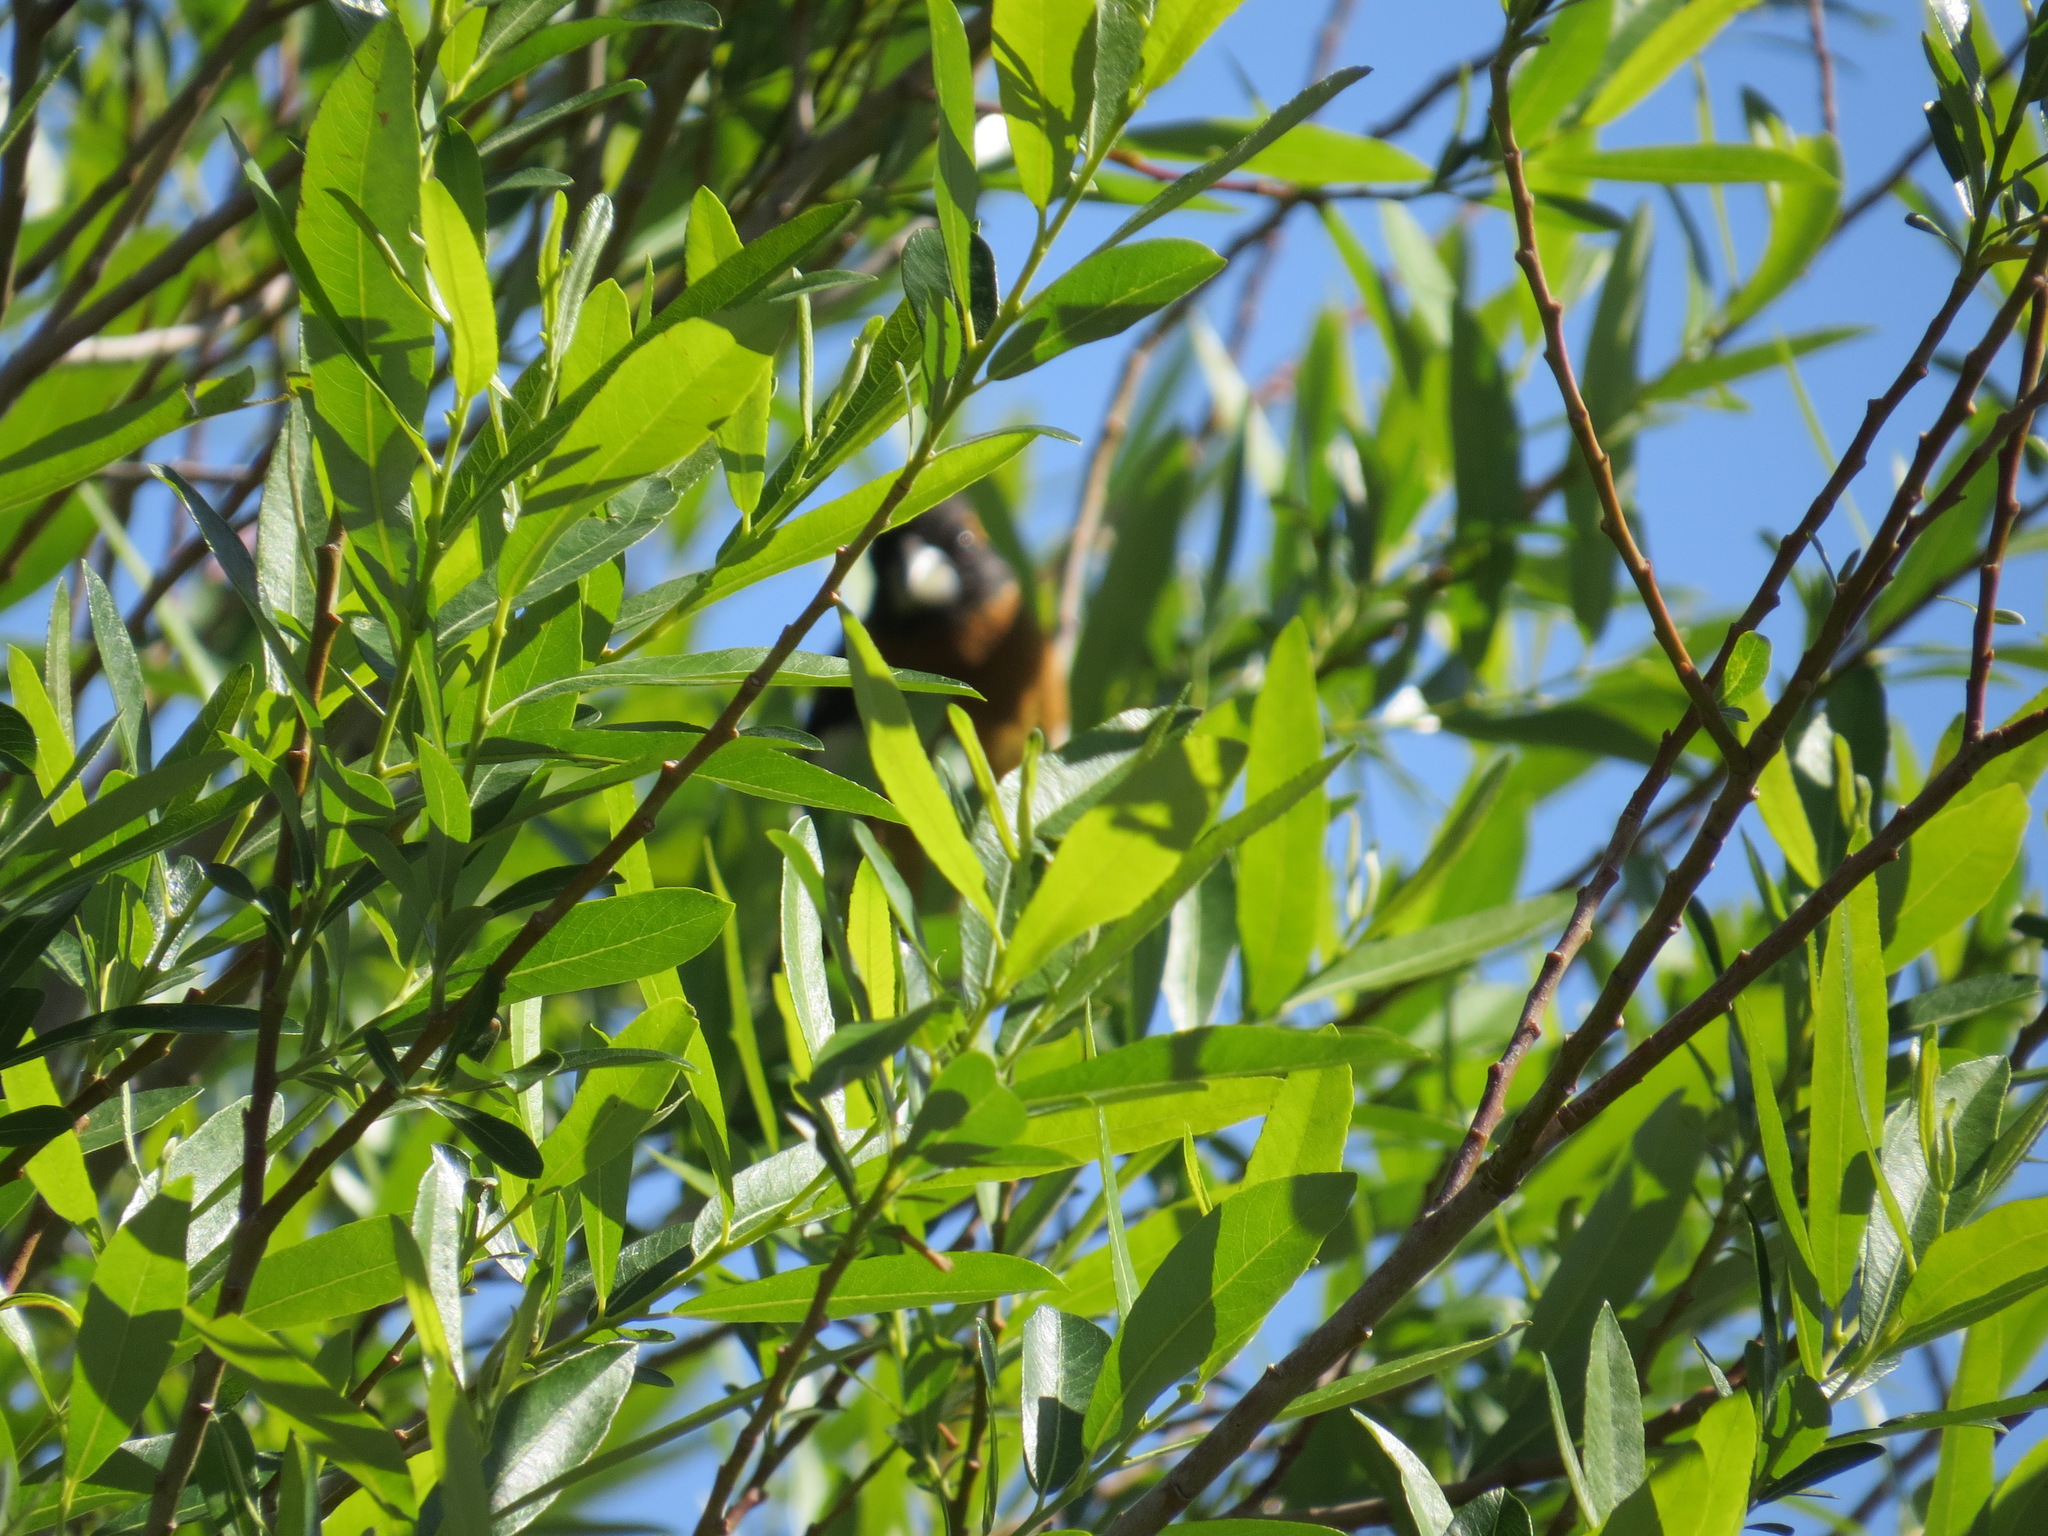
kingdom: Animalia
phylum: Chordata
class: Aves
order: Passeriformes
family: Cardinalidae
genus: Pheucticus
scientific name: Pheucticus melanocephalus
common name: Black-headed grosbeak
